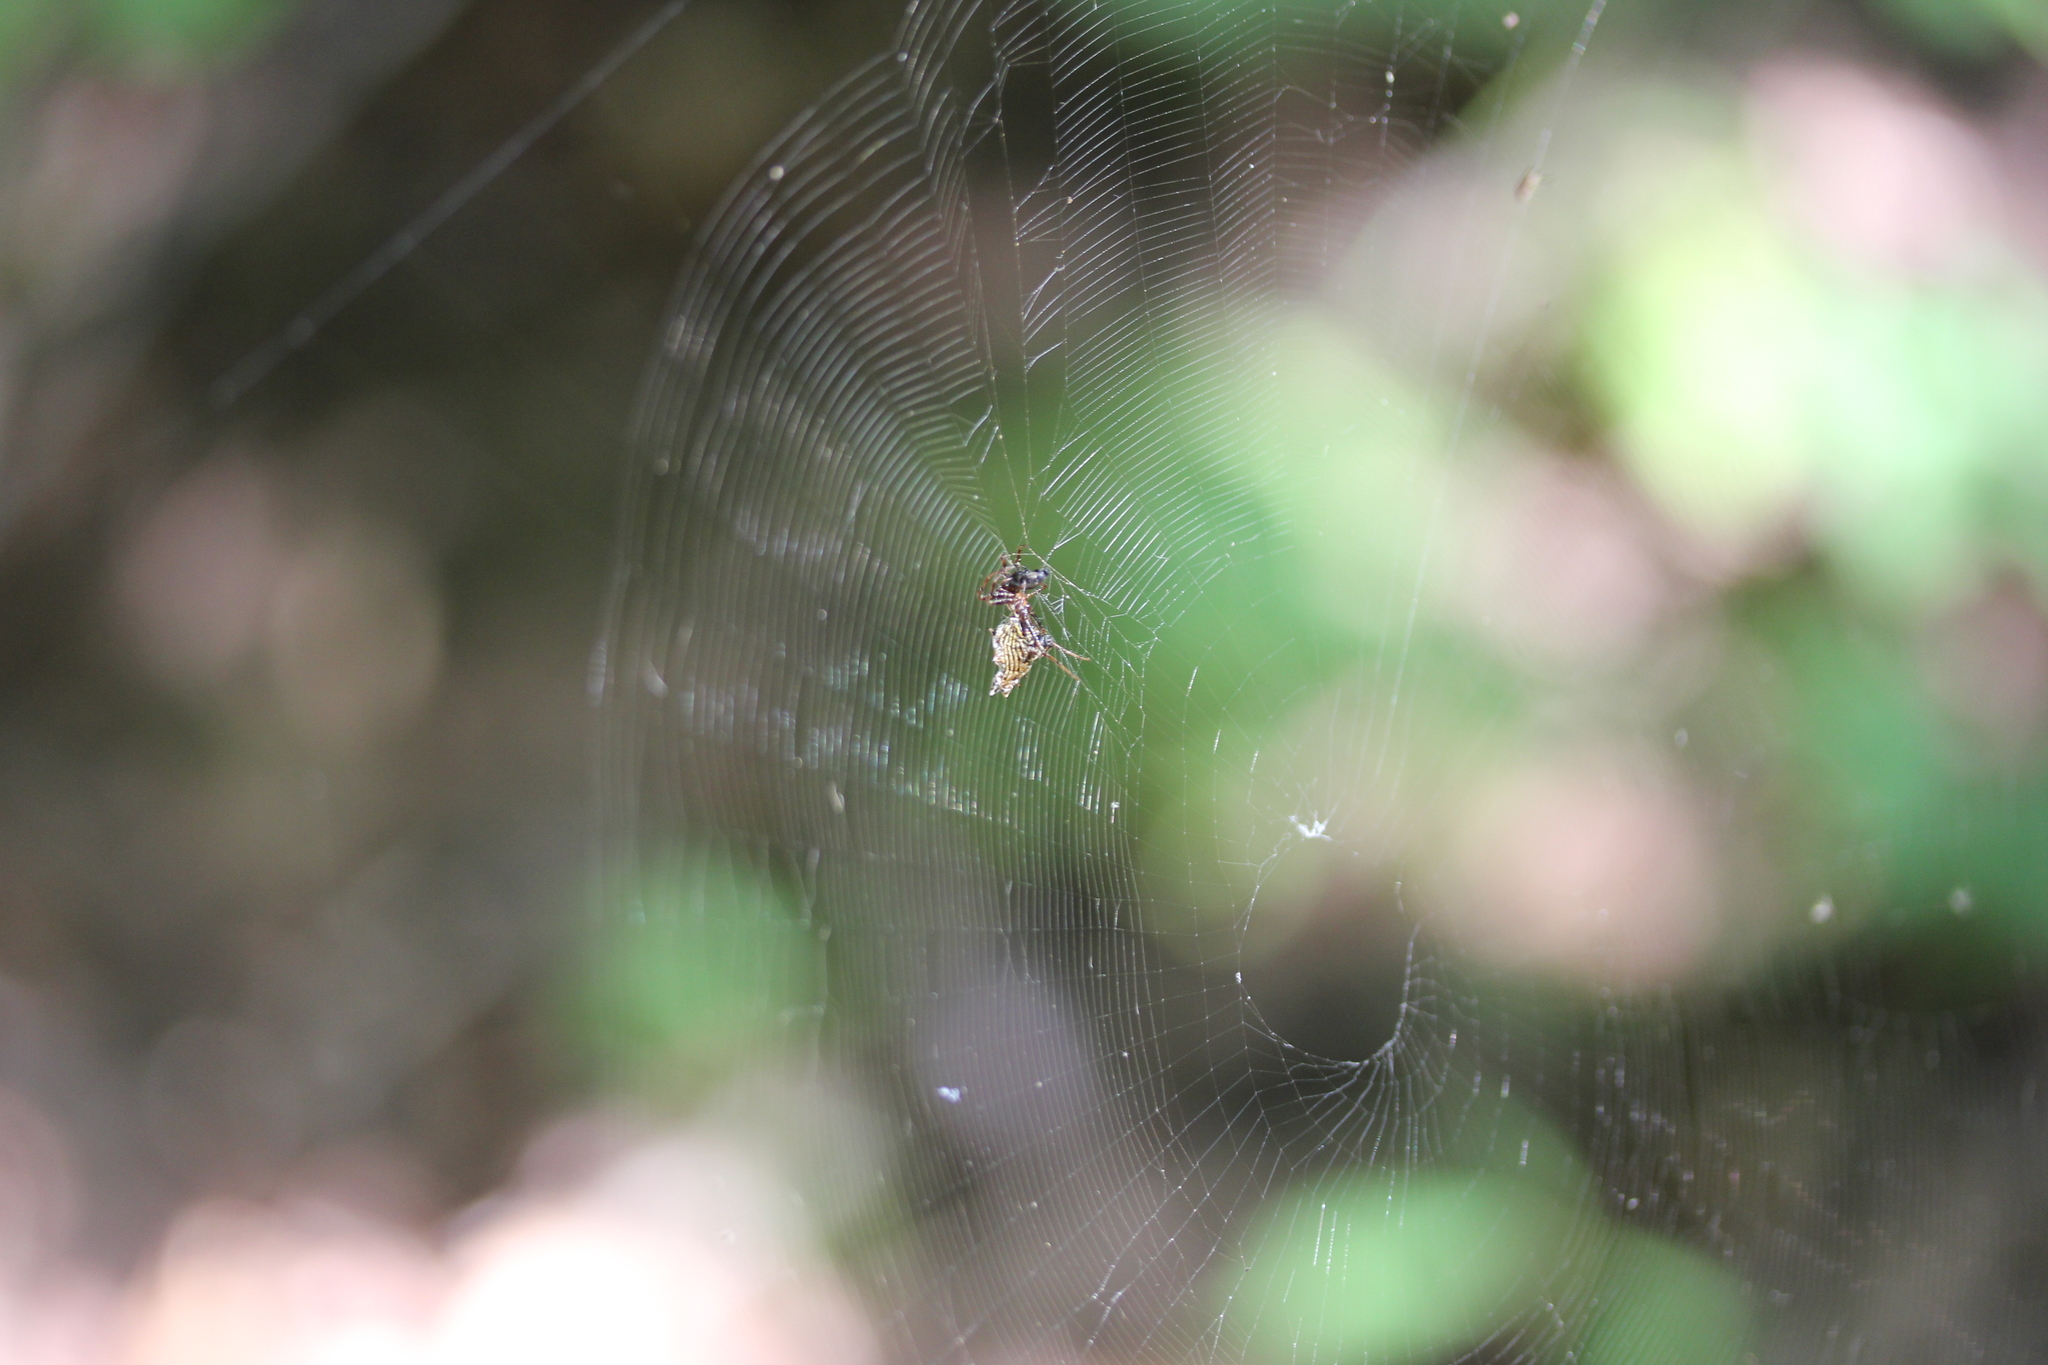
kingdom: Animalia
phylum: Arthropoda
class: Arachnida
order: Araneae
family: Araneidae
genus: Micrathena
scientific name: Micrathena gracilis
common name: Orb weavers
